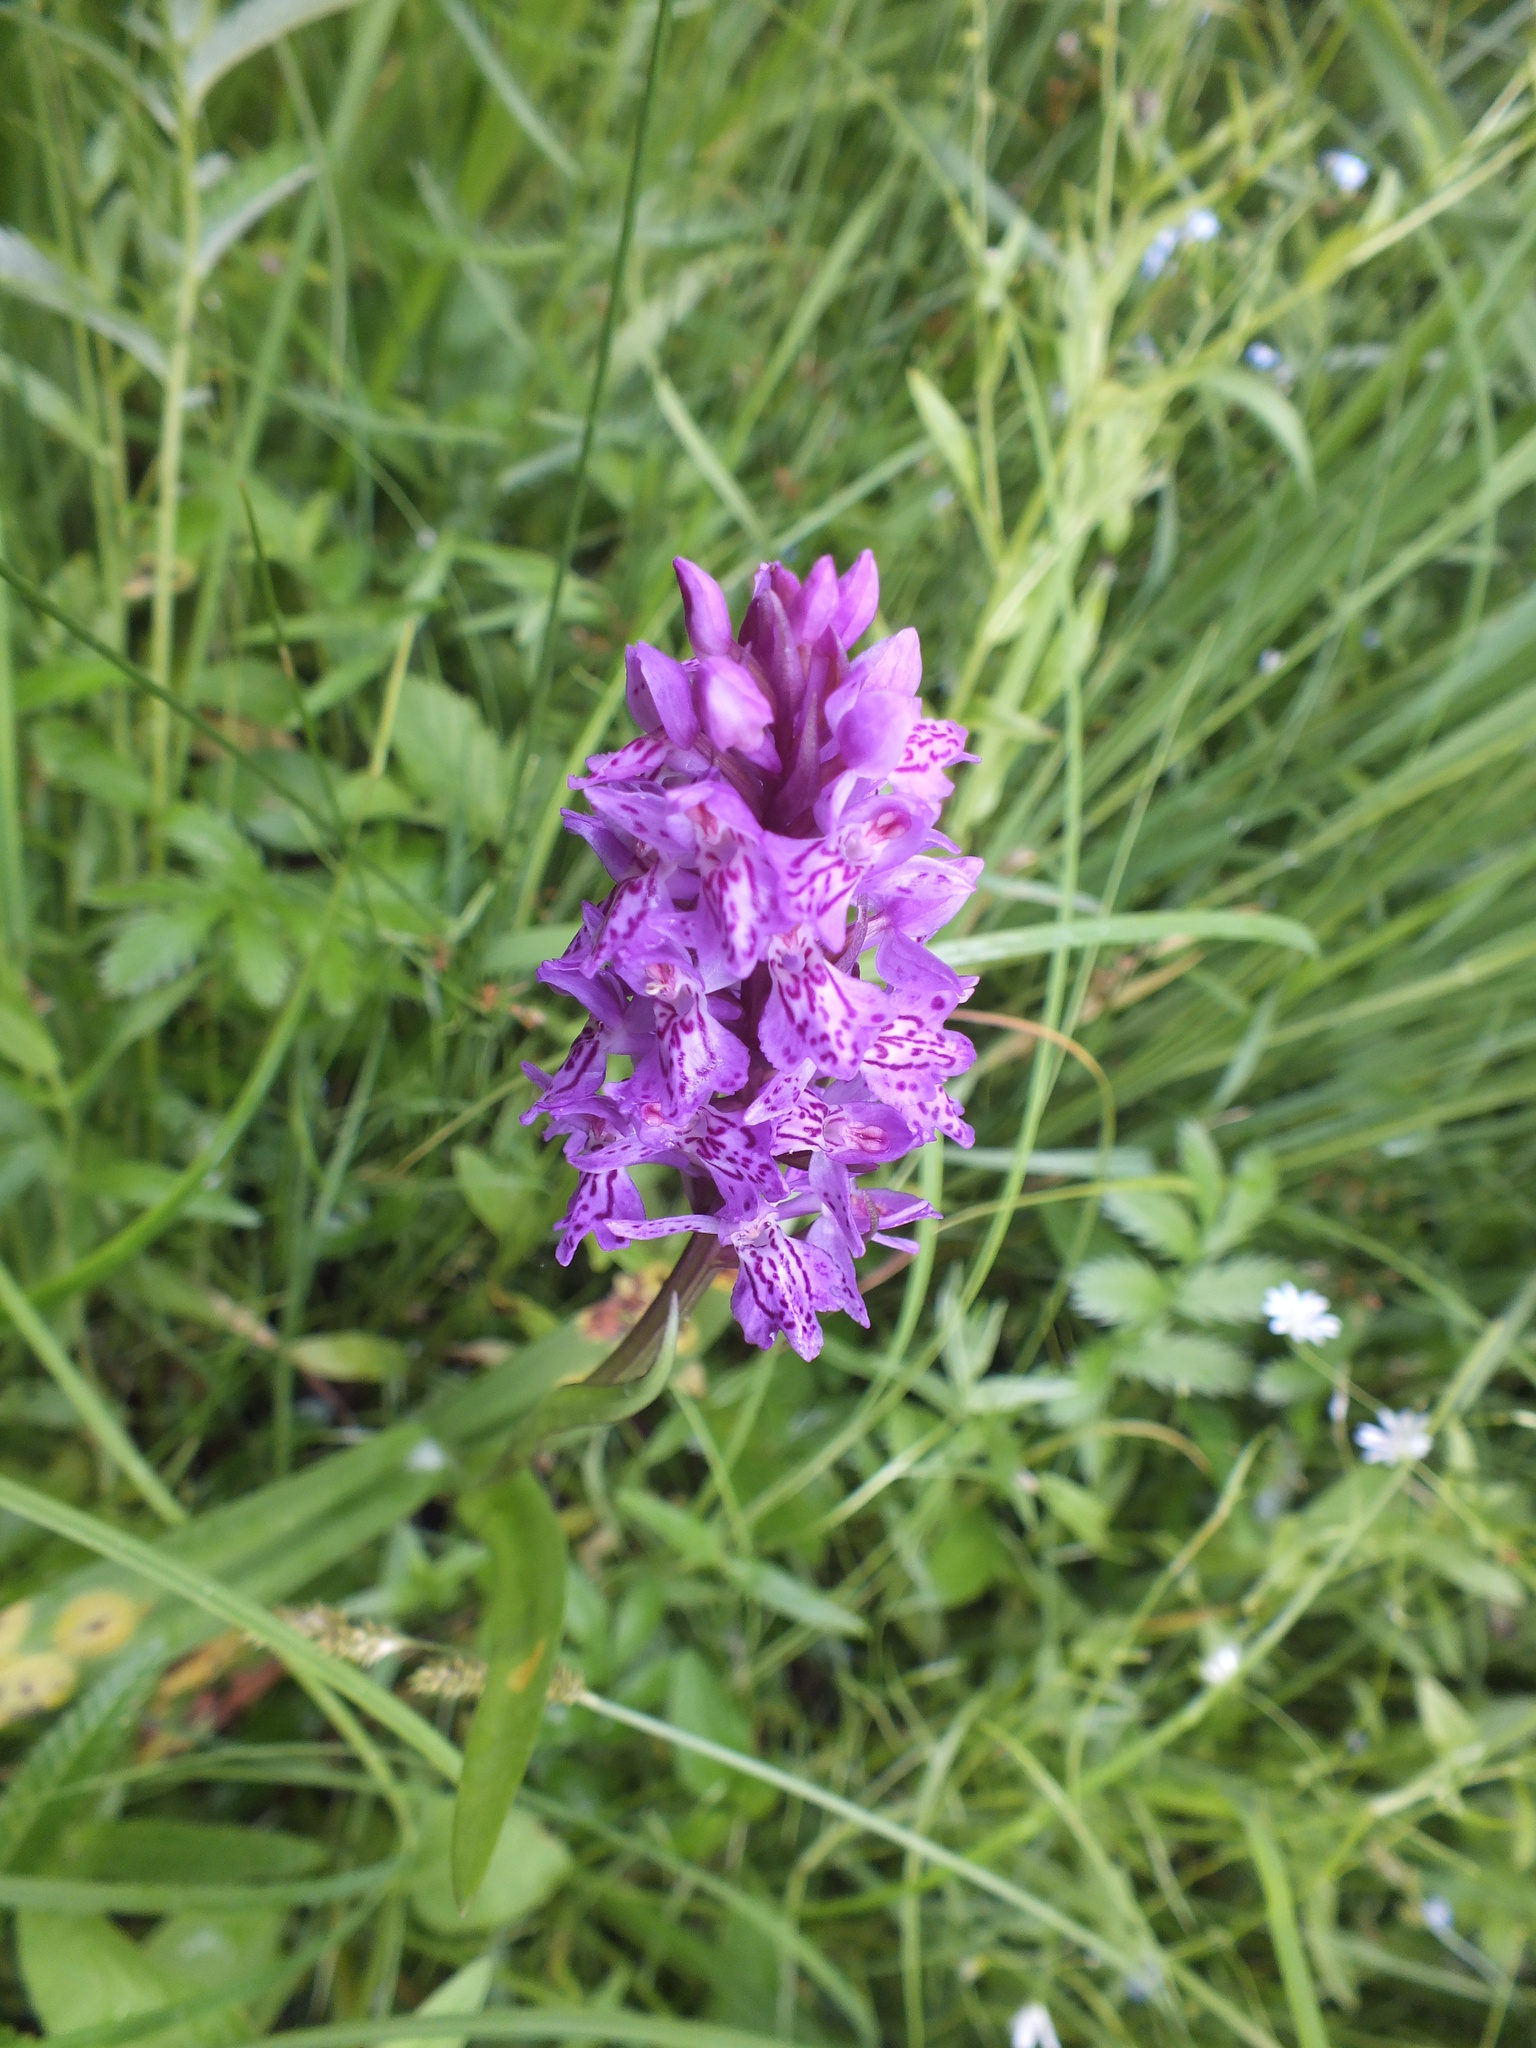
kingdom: Plantae
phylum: Tracheophyta
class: Liliopsida
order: Asparagales
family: Orchidaceae
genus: Dactylorhiza
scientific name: Dactylorhiza sibirica
